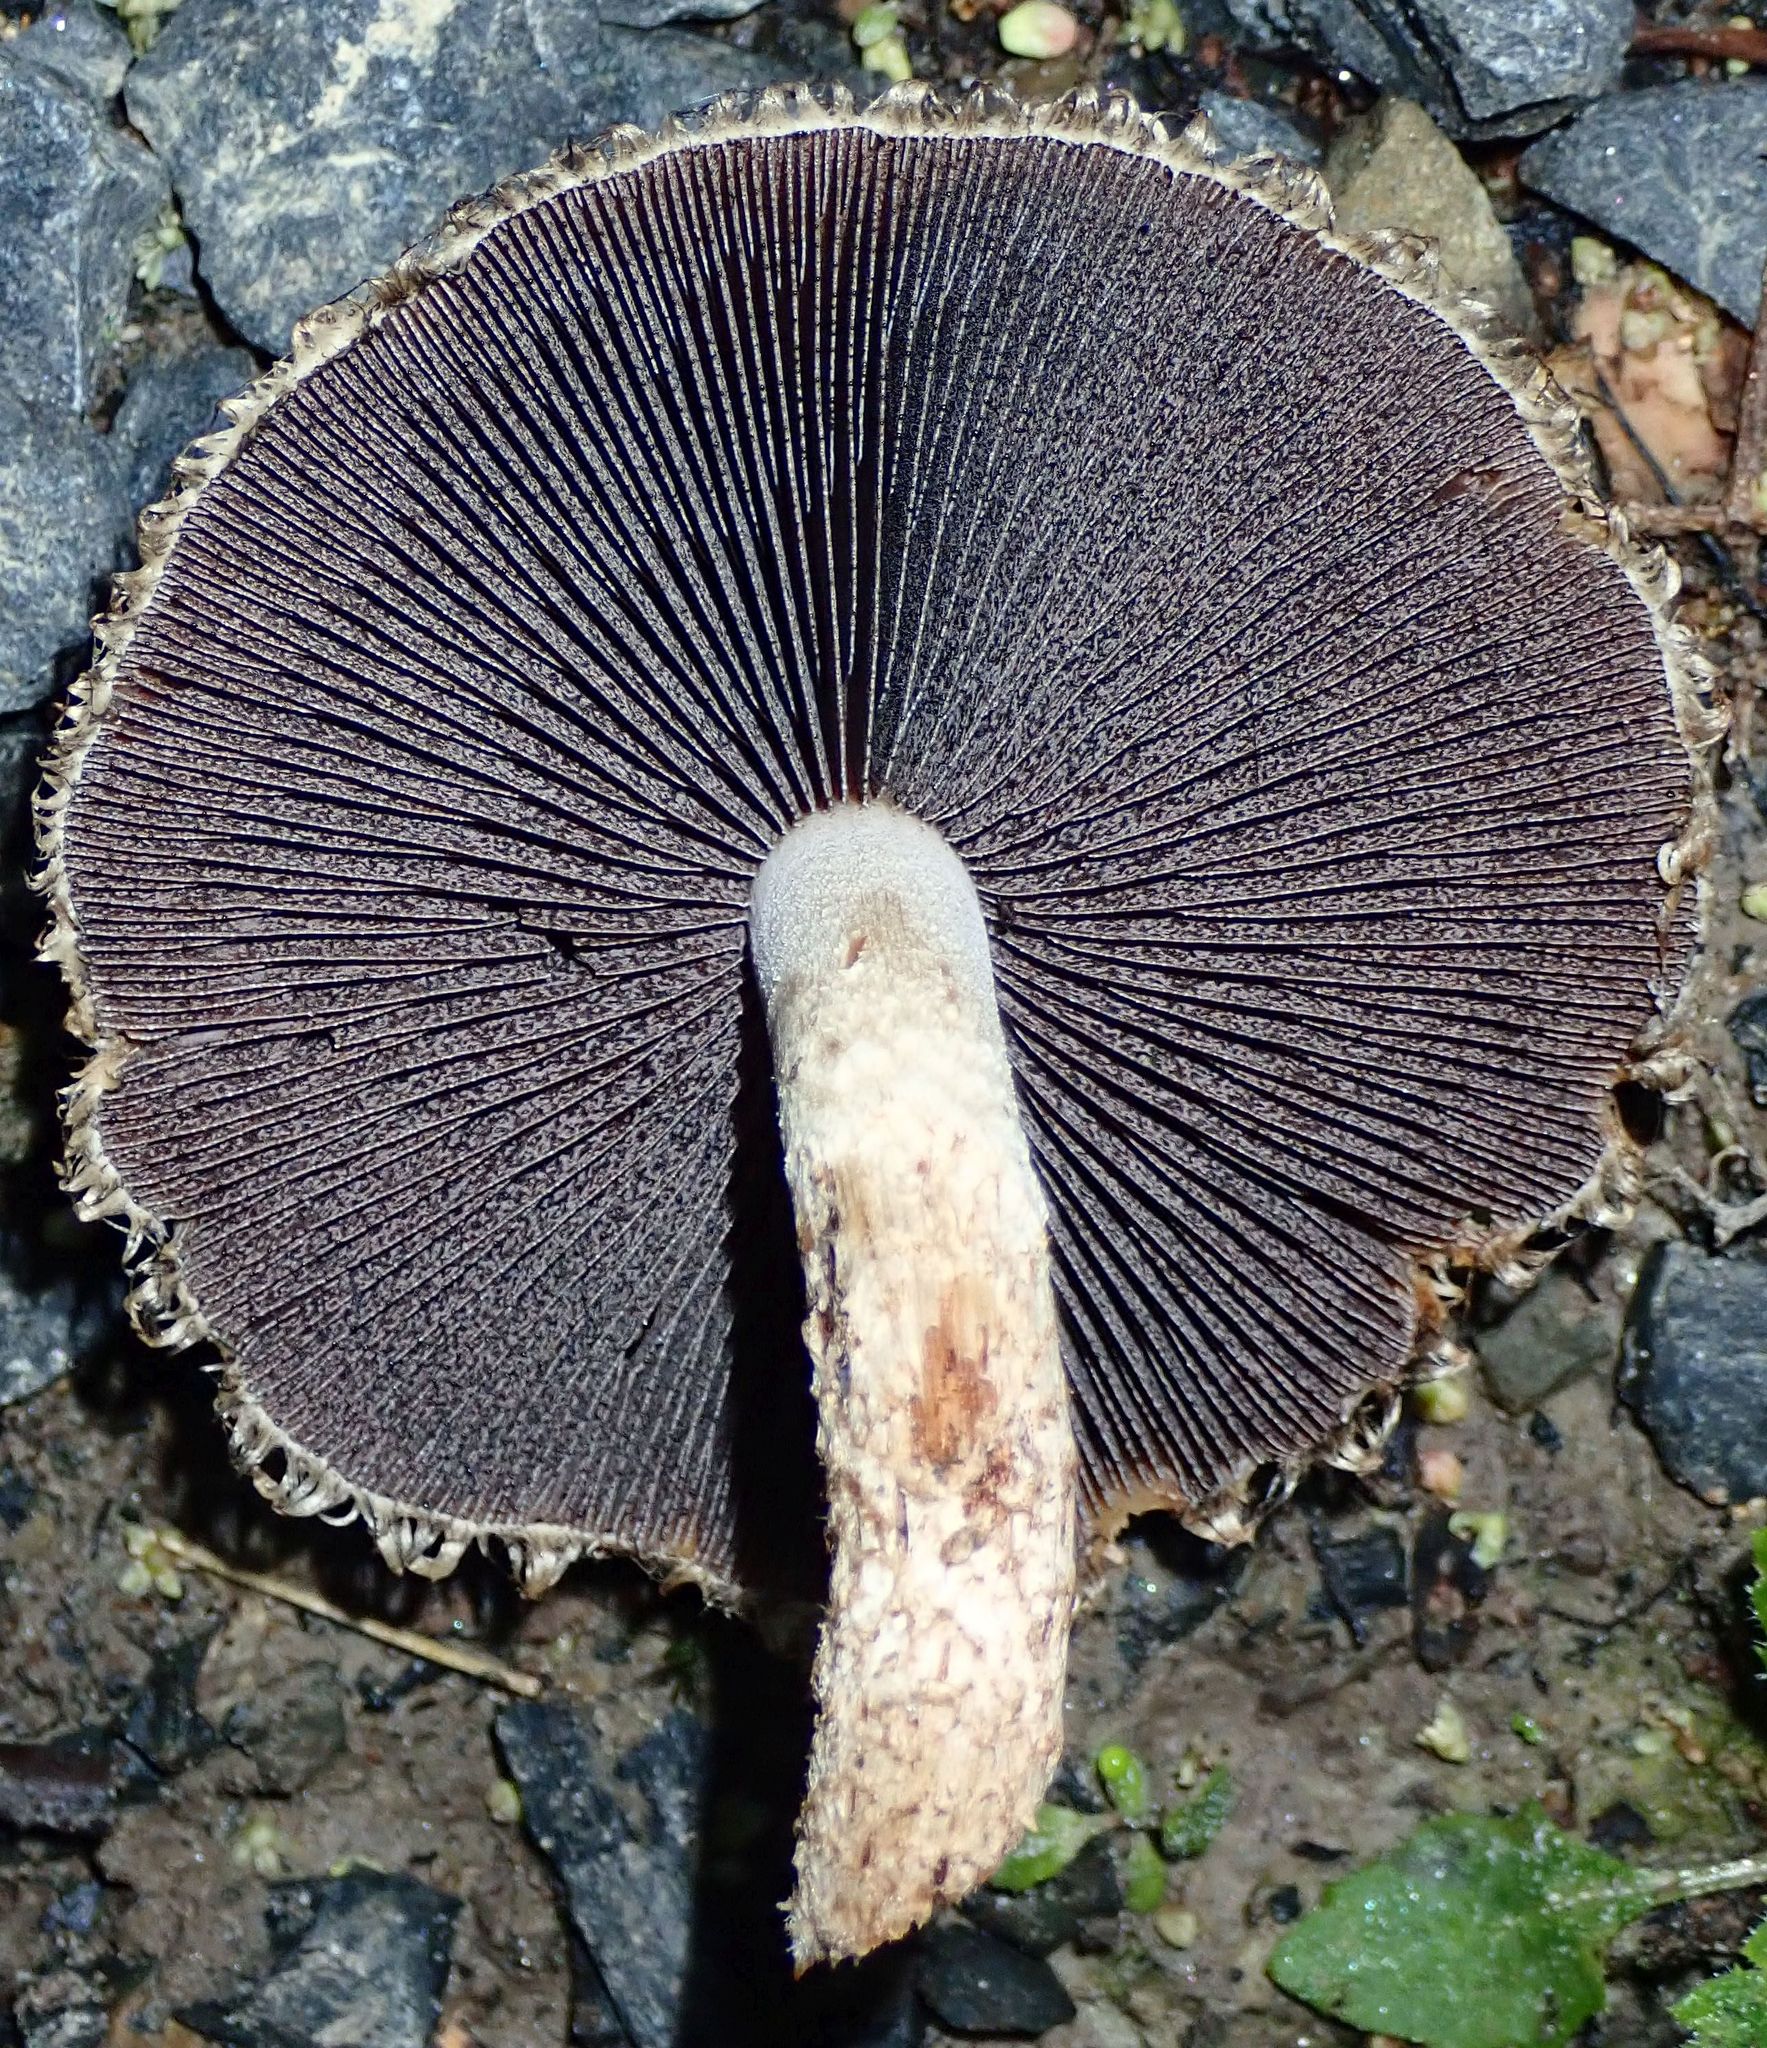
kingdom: Fungi
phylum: Basidiomycota
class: Agaricomycetes
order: Agaricales
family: Psathyrellaceae
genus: Psathyrella
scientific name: Psathyrella asperospora
